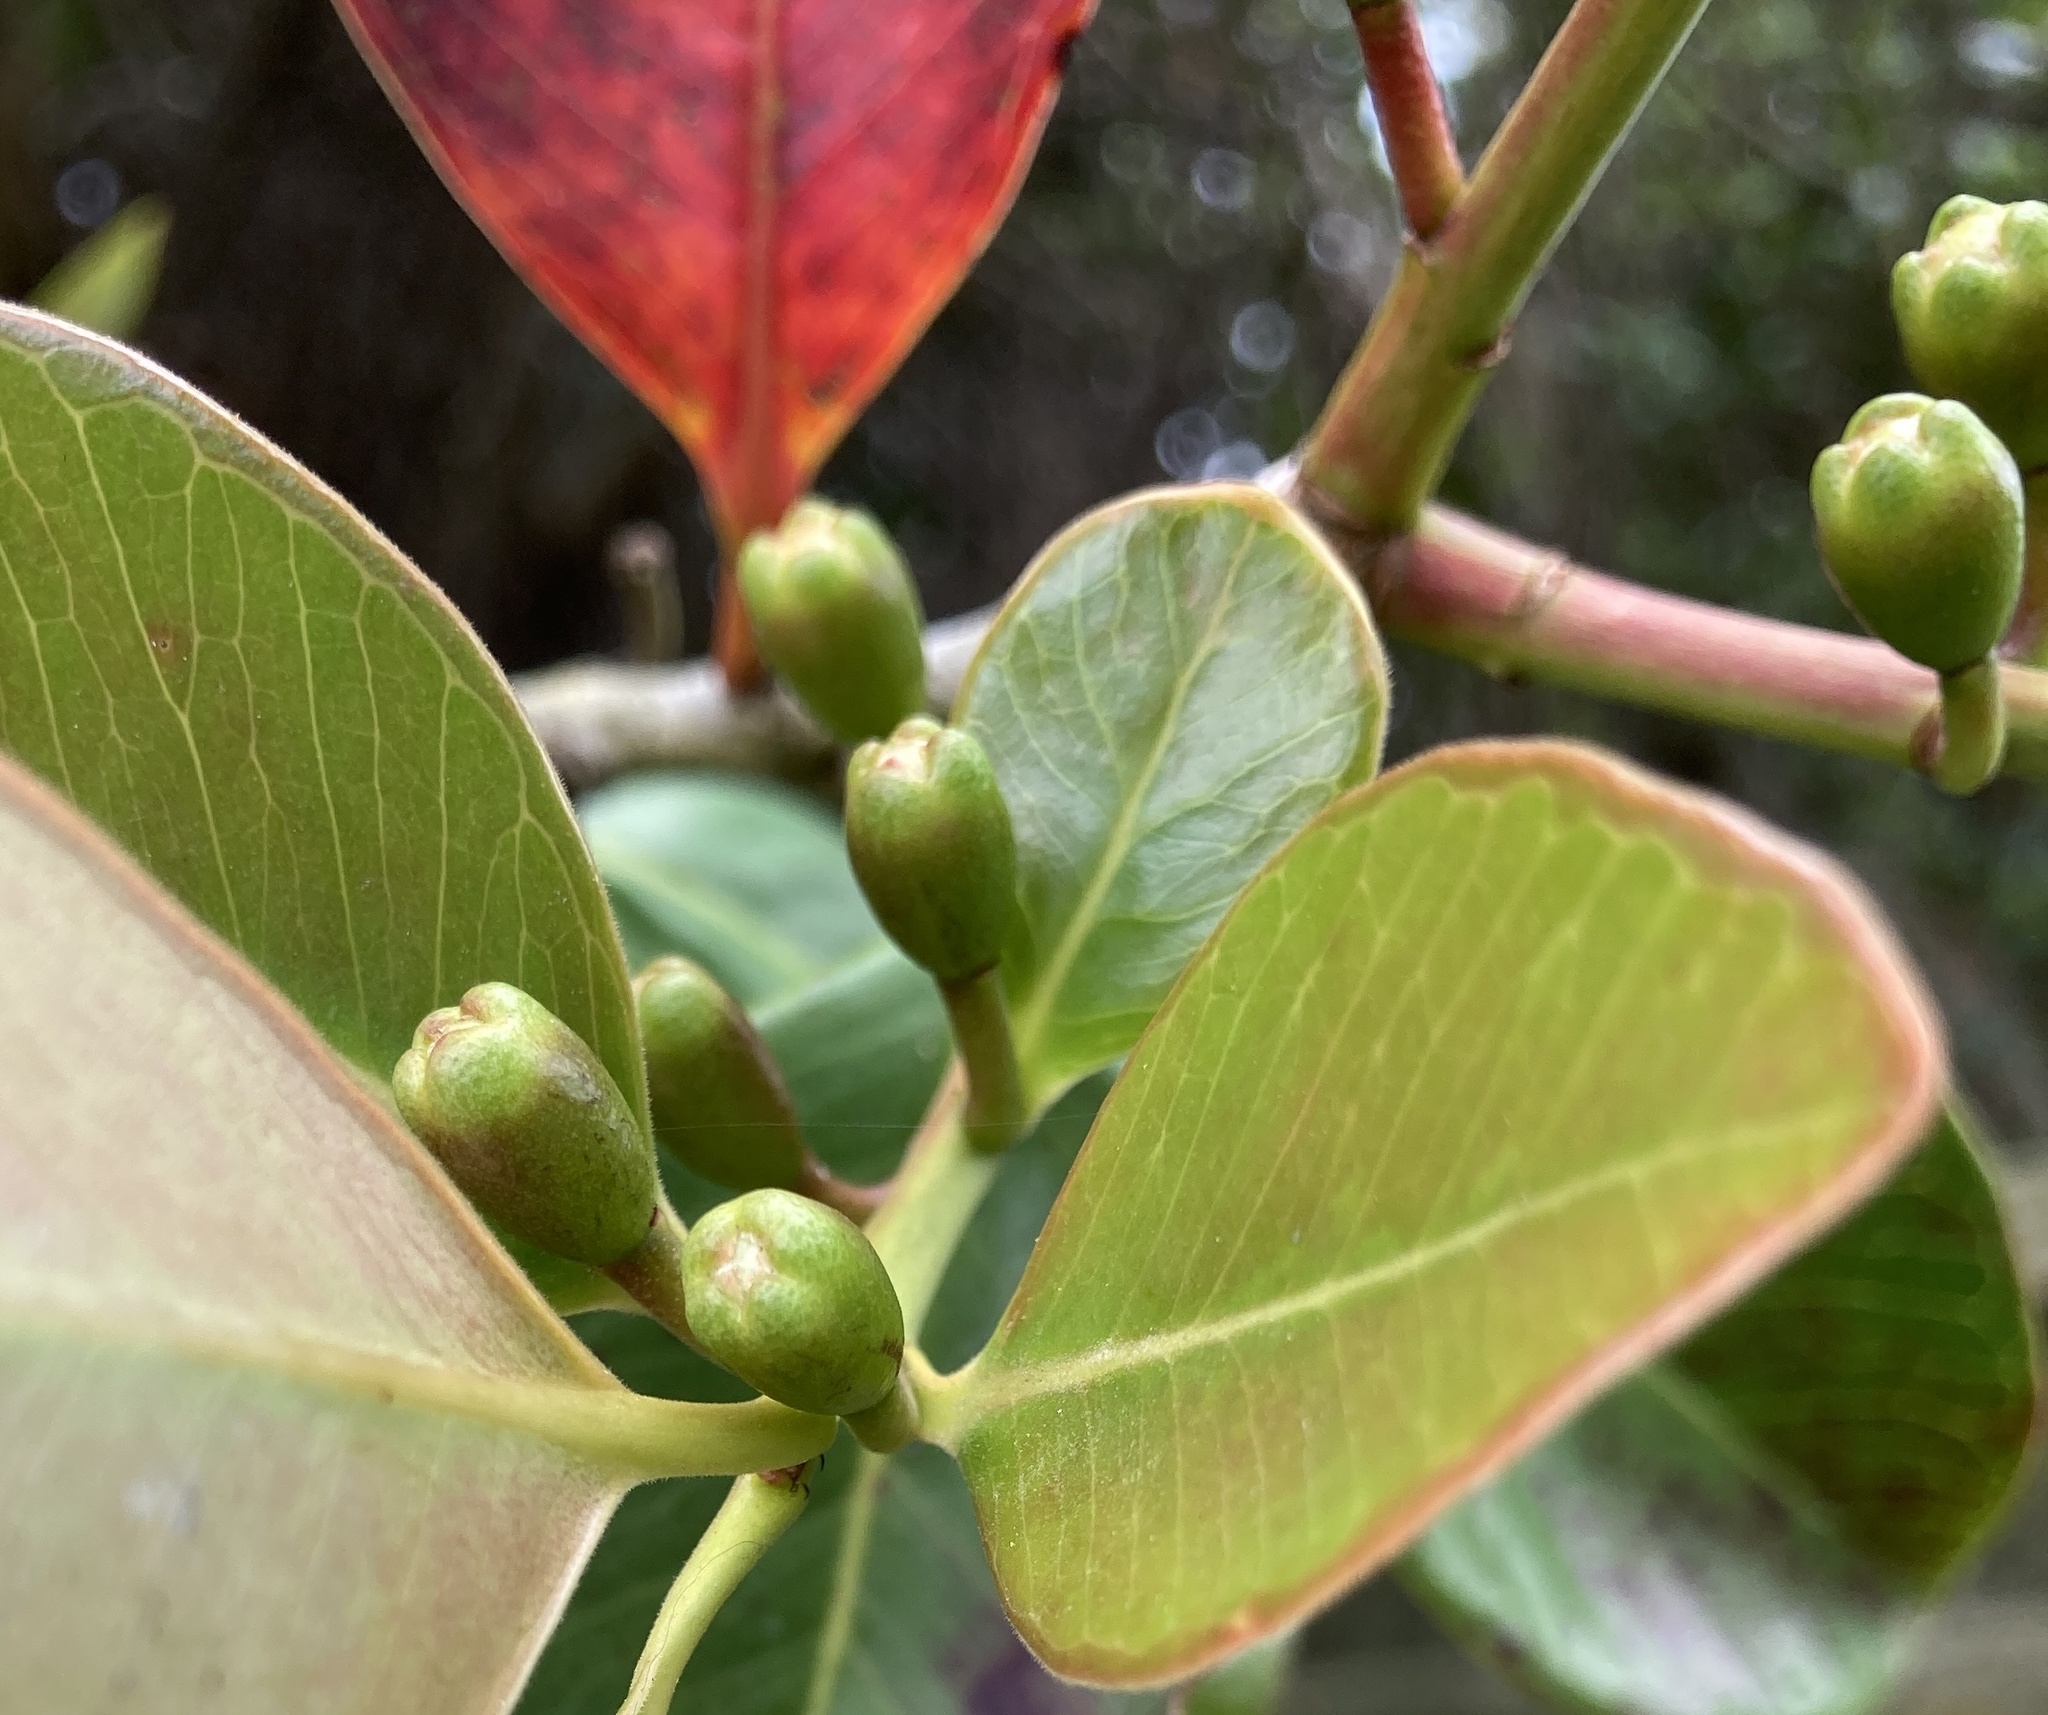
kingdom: Plantae
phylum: Tracheophyta
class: Magnoliopsida
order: Myrtales
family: Myrtaceae
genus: Psidium
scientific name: Psidium cattleianum
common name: Strawberry guava
